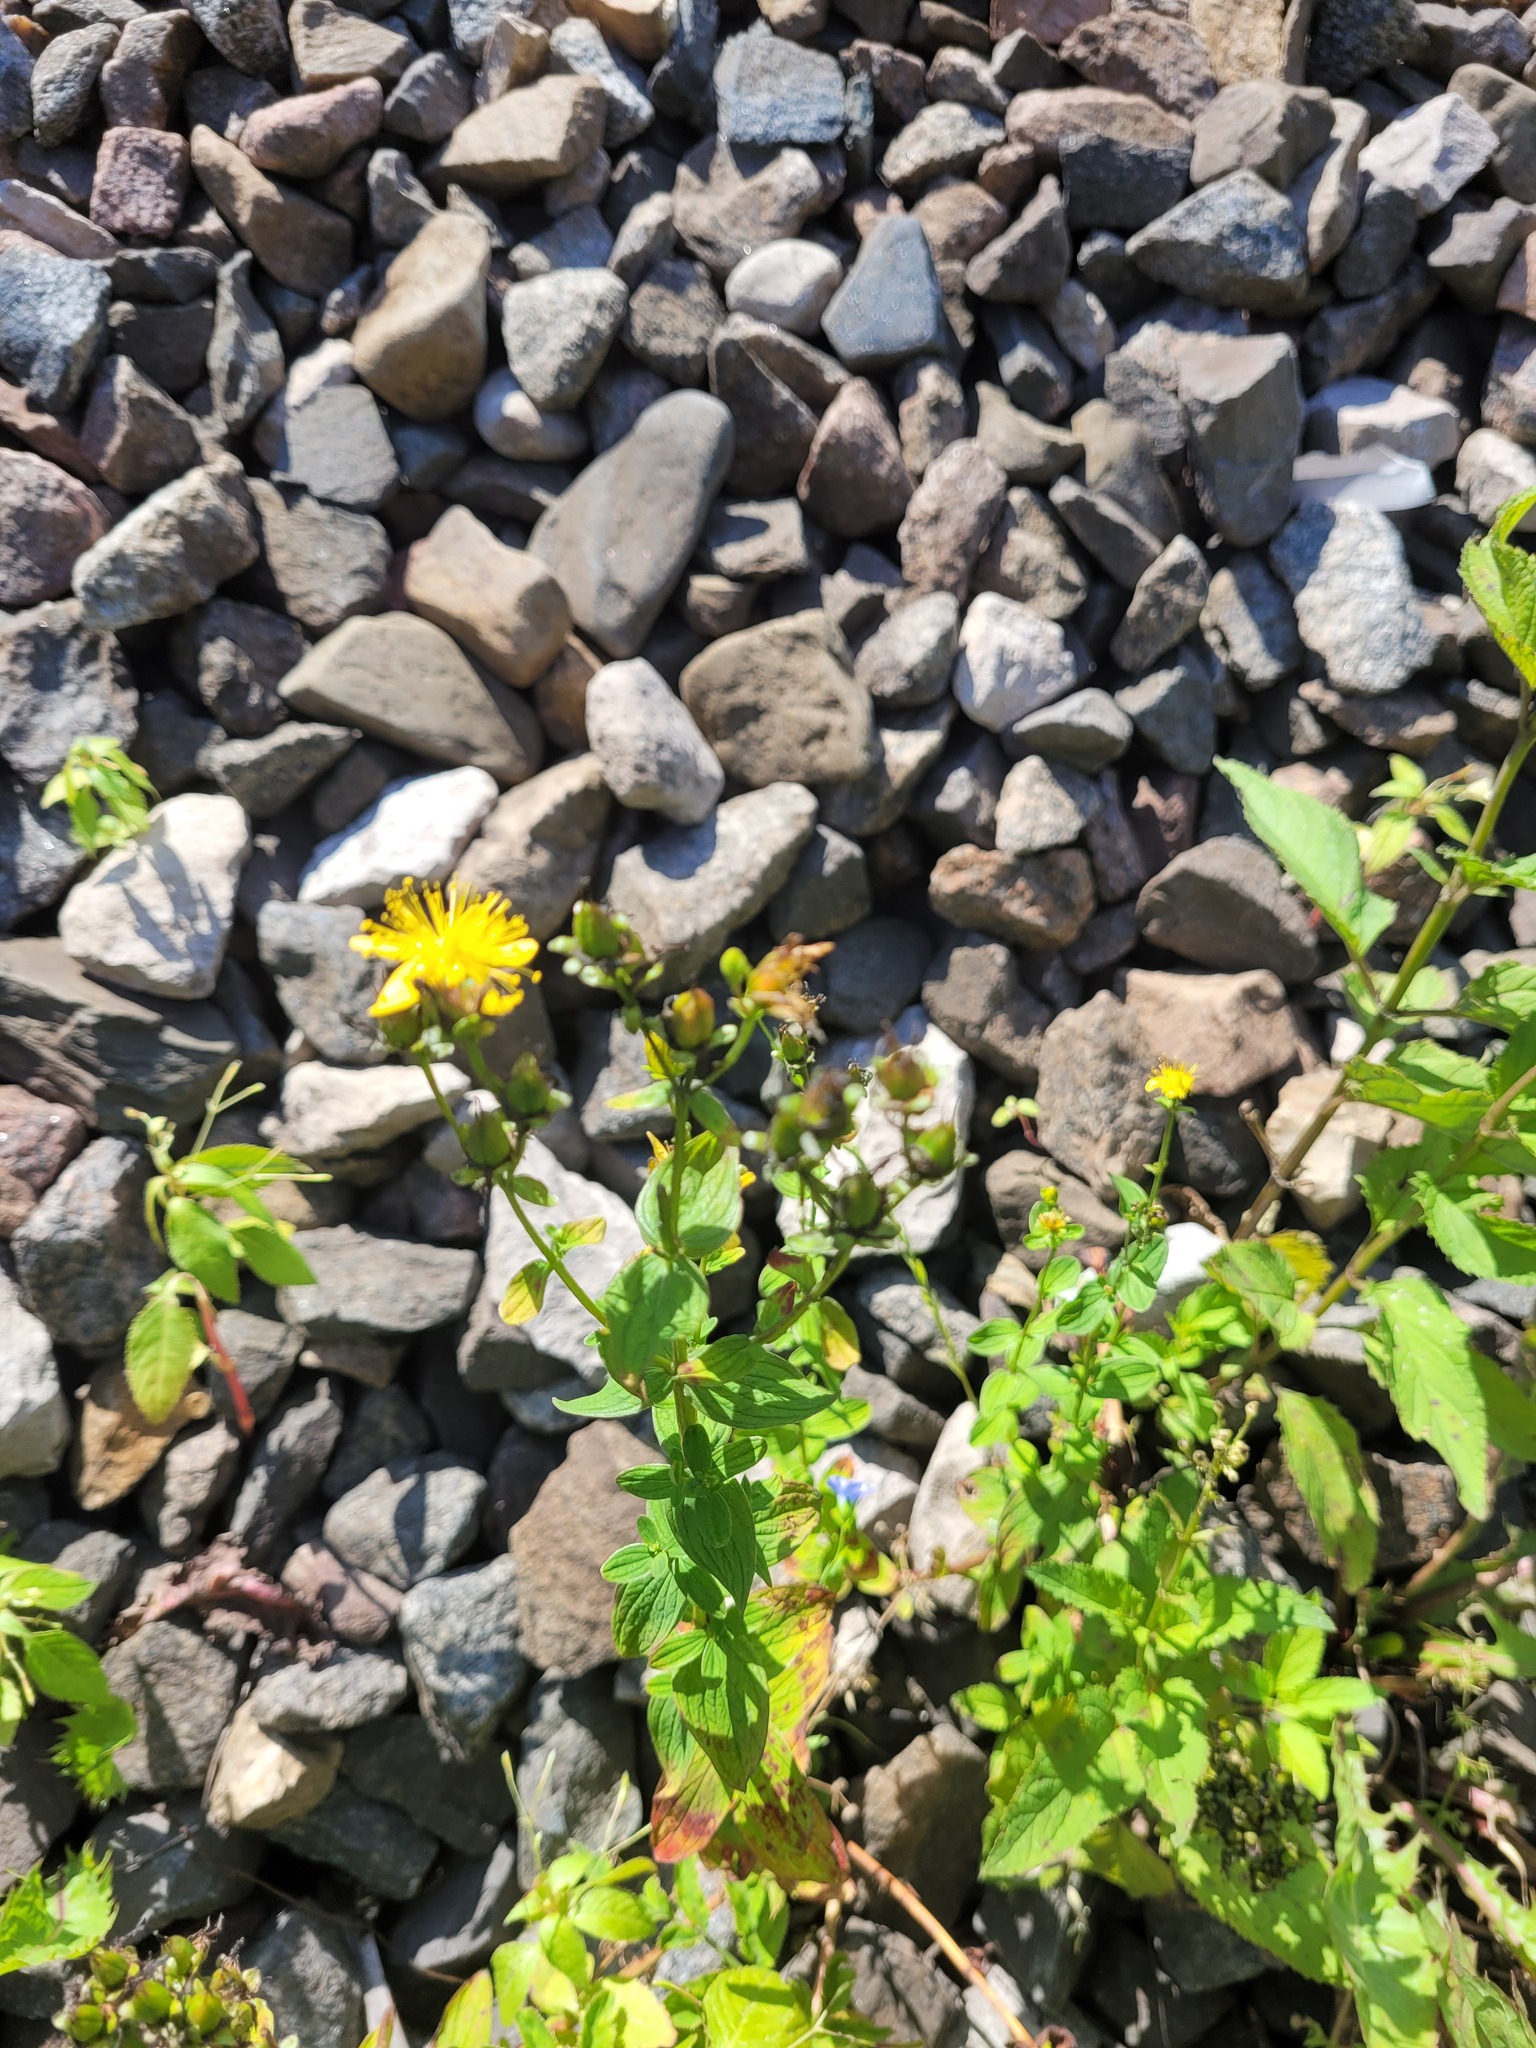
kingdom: Plantae
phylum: Tracheophyta
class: Magnoliopsida
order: Malpighiales
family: Hypericaceae
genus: Hypericum
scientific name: Hypericum maculatum
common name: Imperforate st. john's-wort
